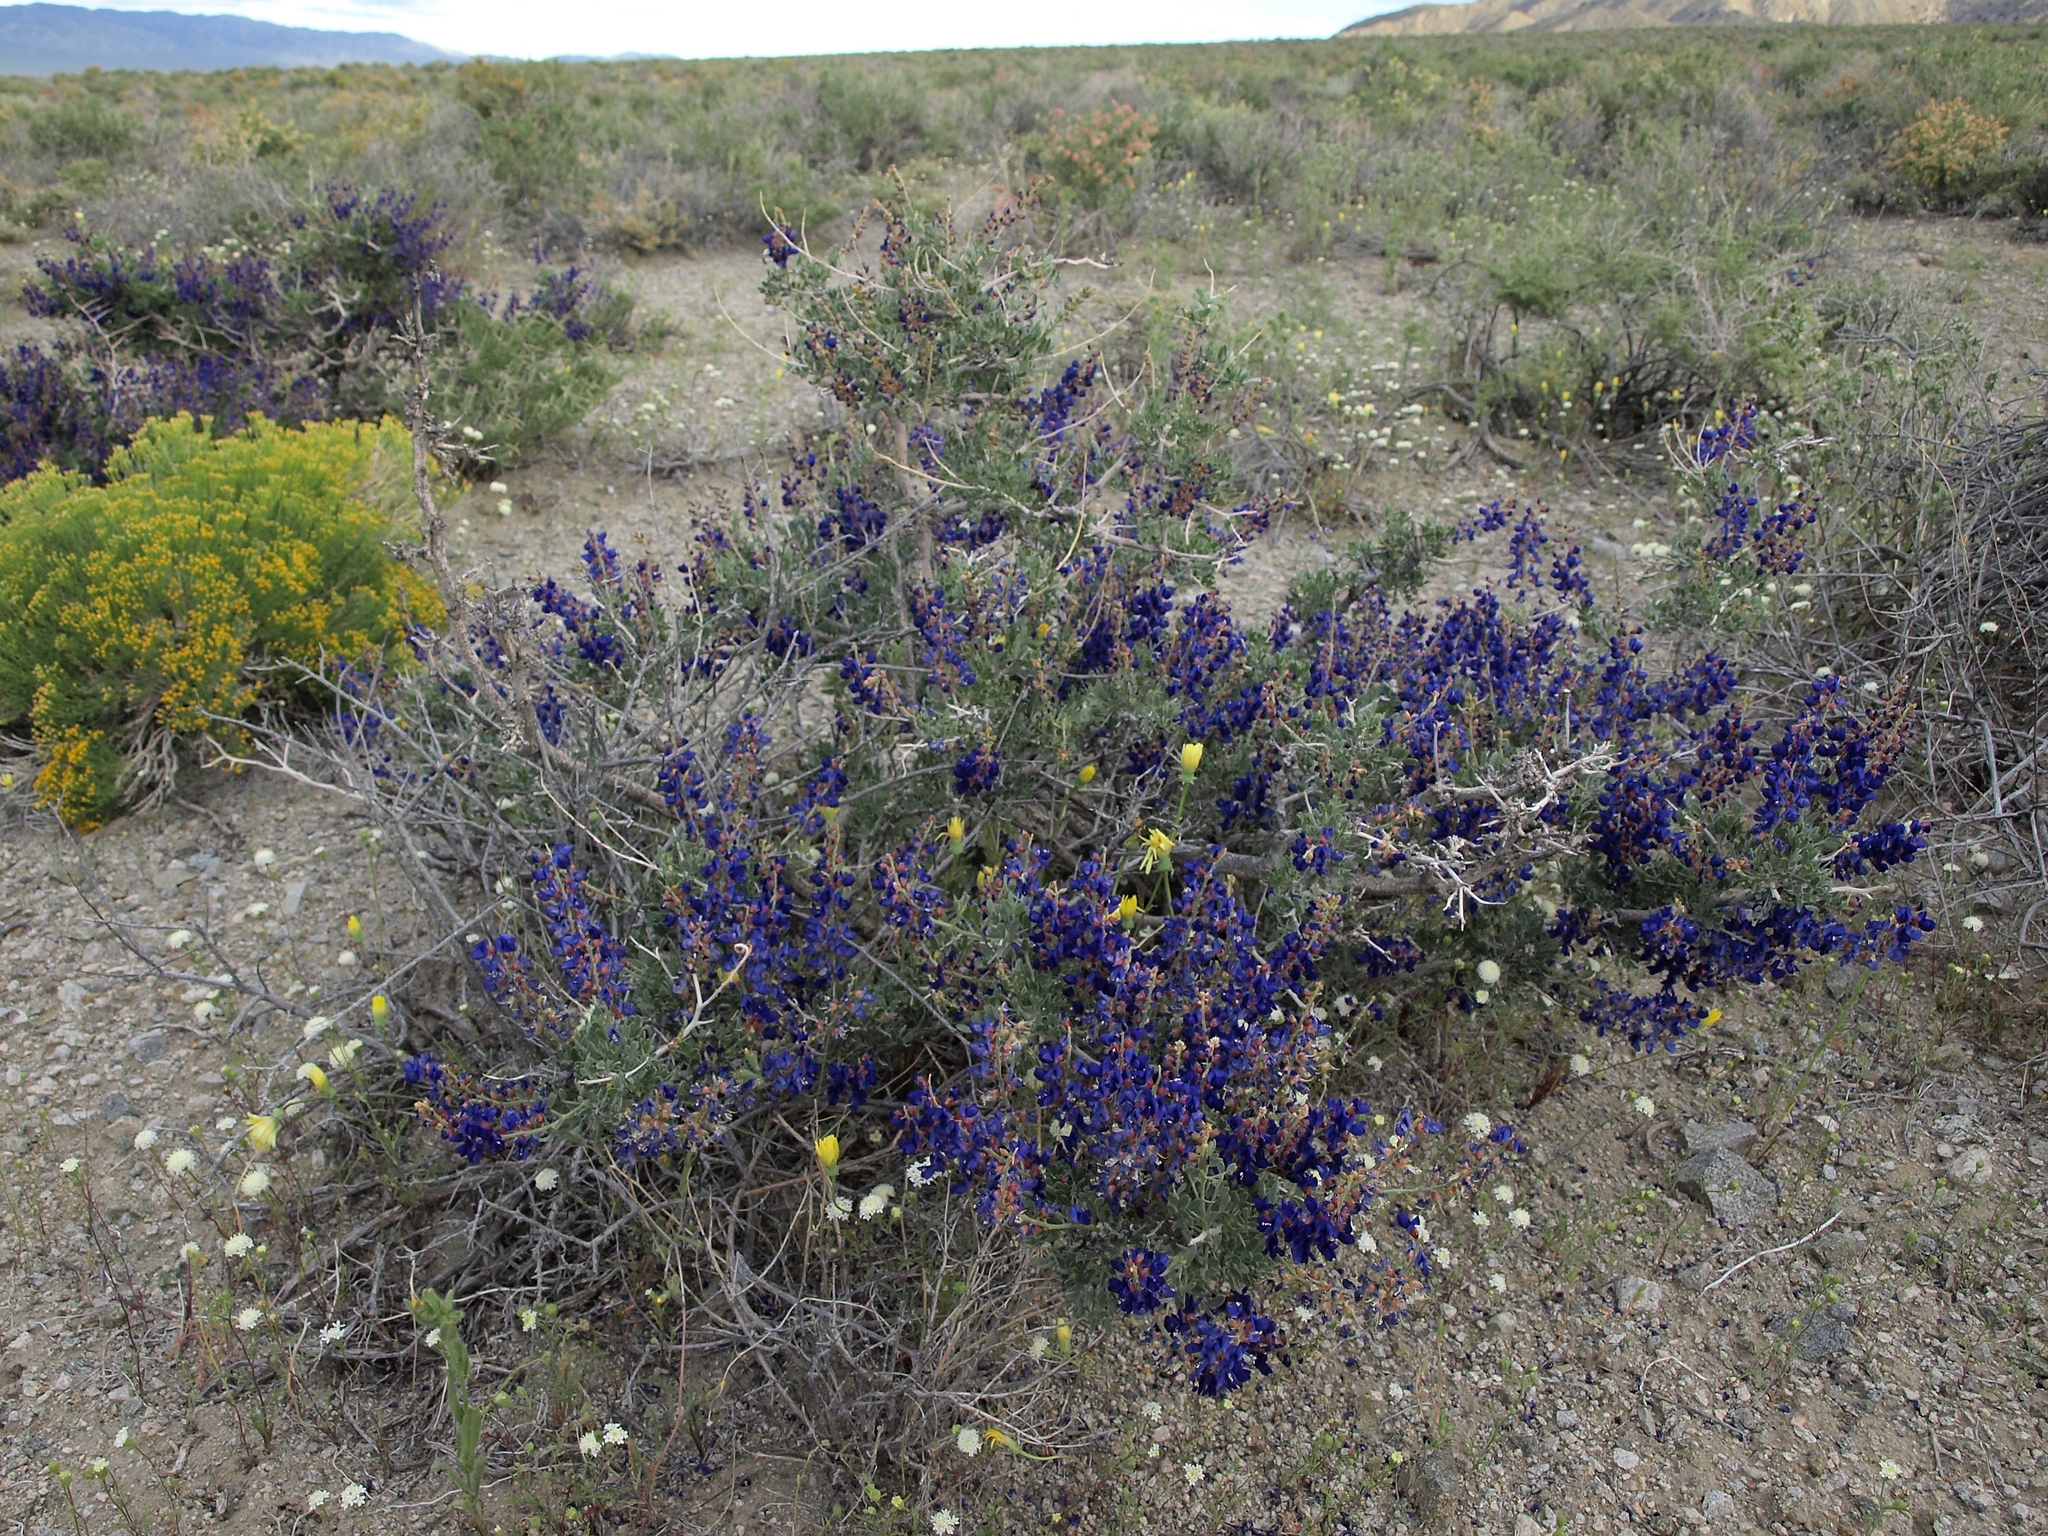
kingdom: Plantae
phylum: Tracheophyta
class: Magnoliopsida
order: Fabales
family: Fabaceae
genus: Psorothamnus
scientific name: Psorothamnus arborescens
